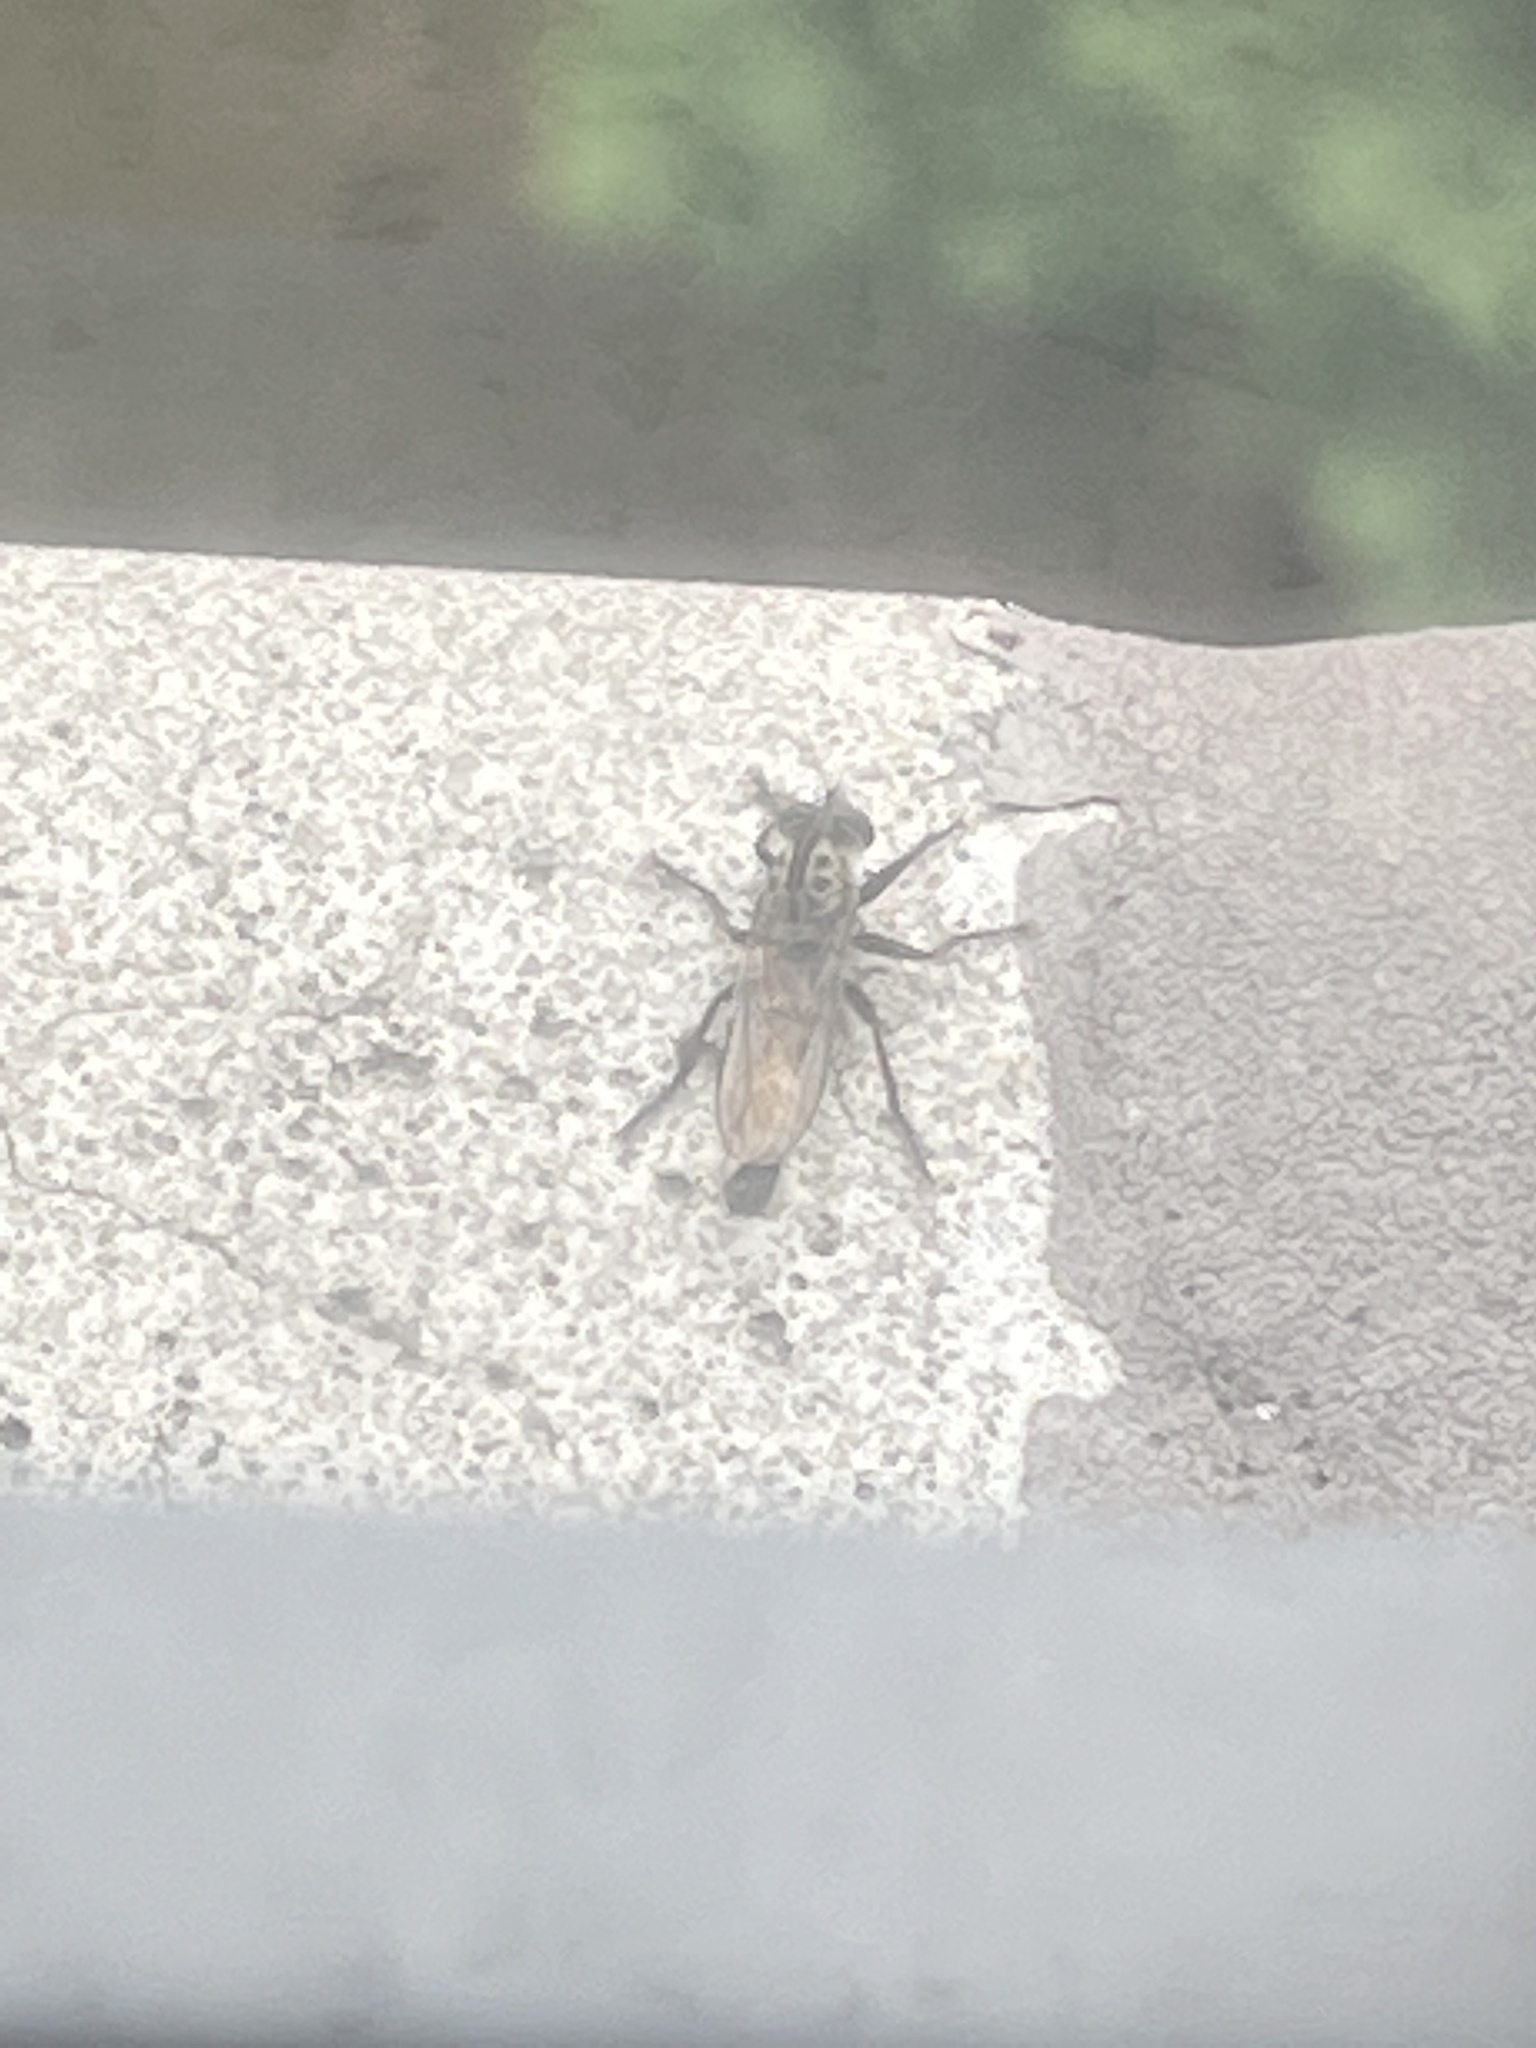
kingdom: Animalia
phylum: Arthropoda
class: Insecta
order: Diptera
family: Asilidae
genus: Efferia
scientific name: Efferia aestuans
